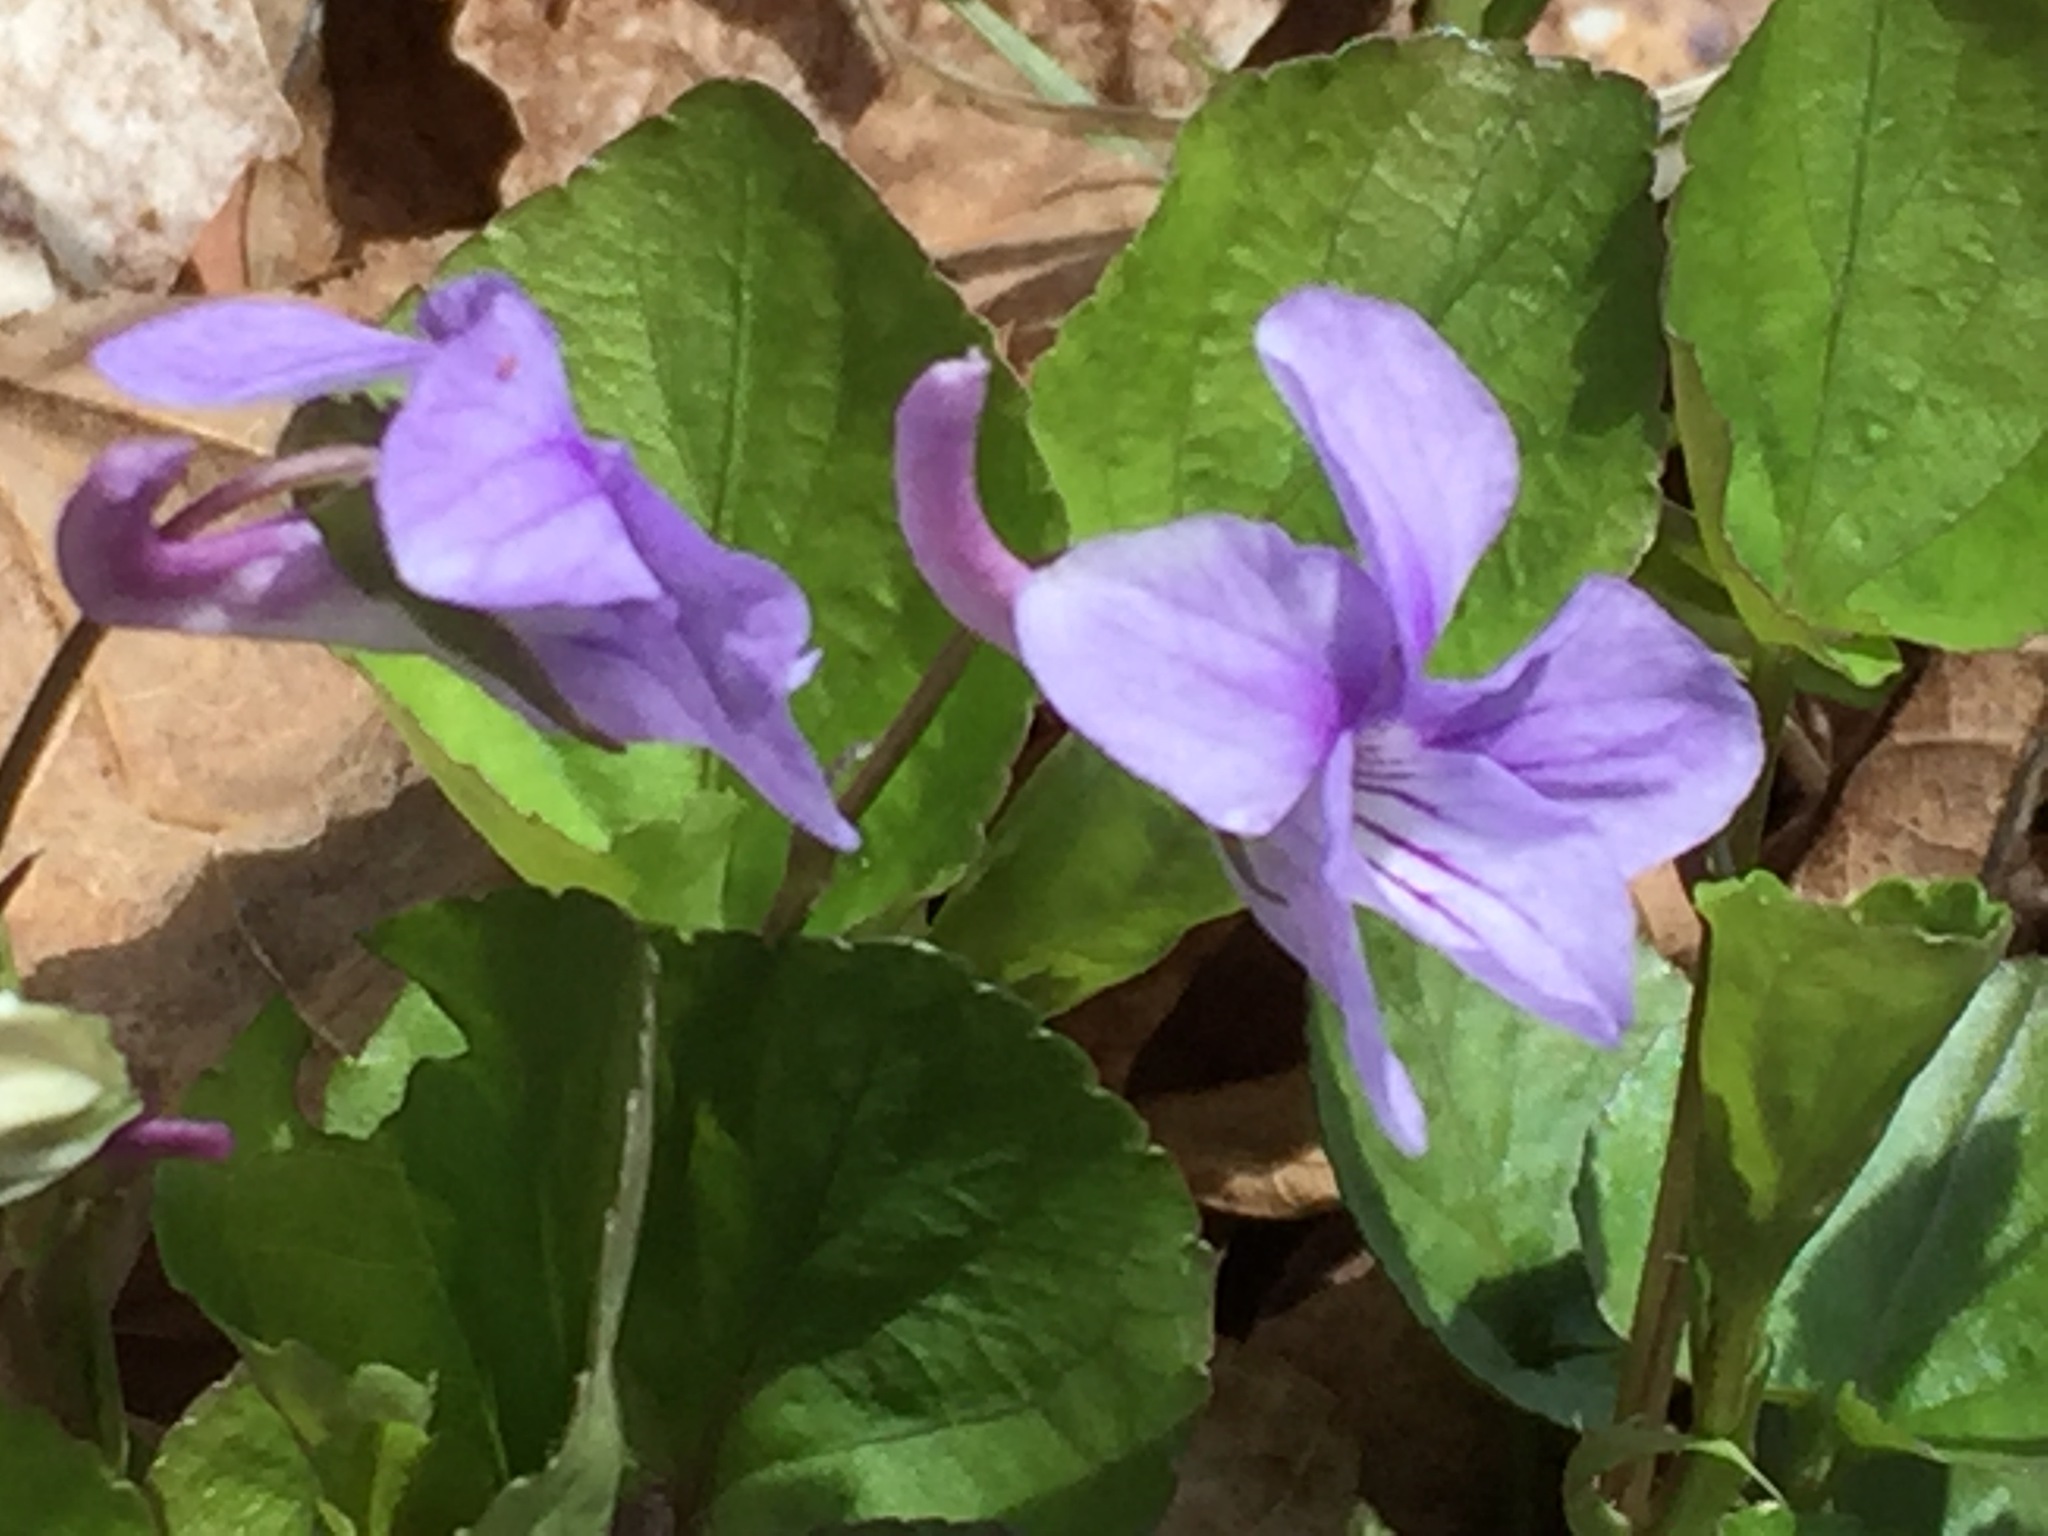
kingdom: Plantae
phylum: Tracheophyta
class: Magnoliopsida
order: Malpighiales
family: Violaceae
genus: Viola
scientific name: Viola rostrata
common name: Long-spur violet
